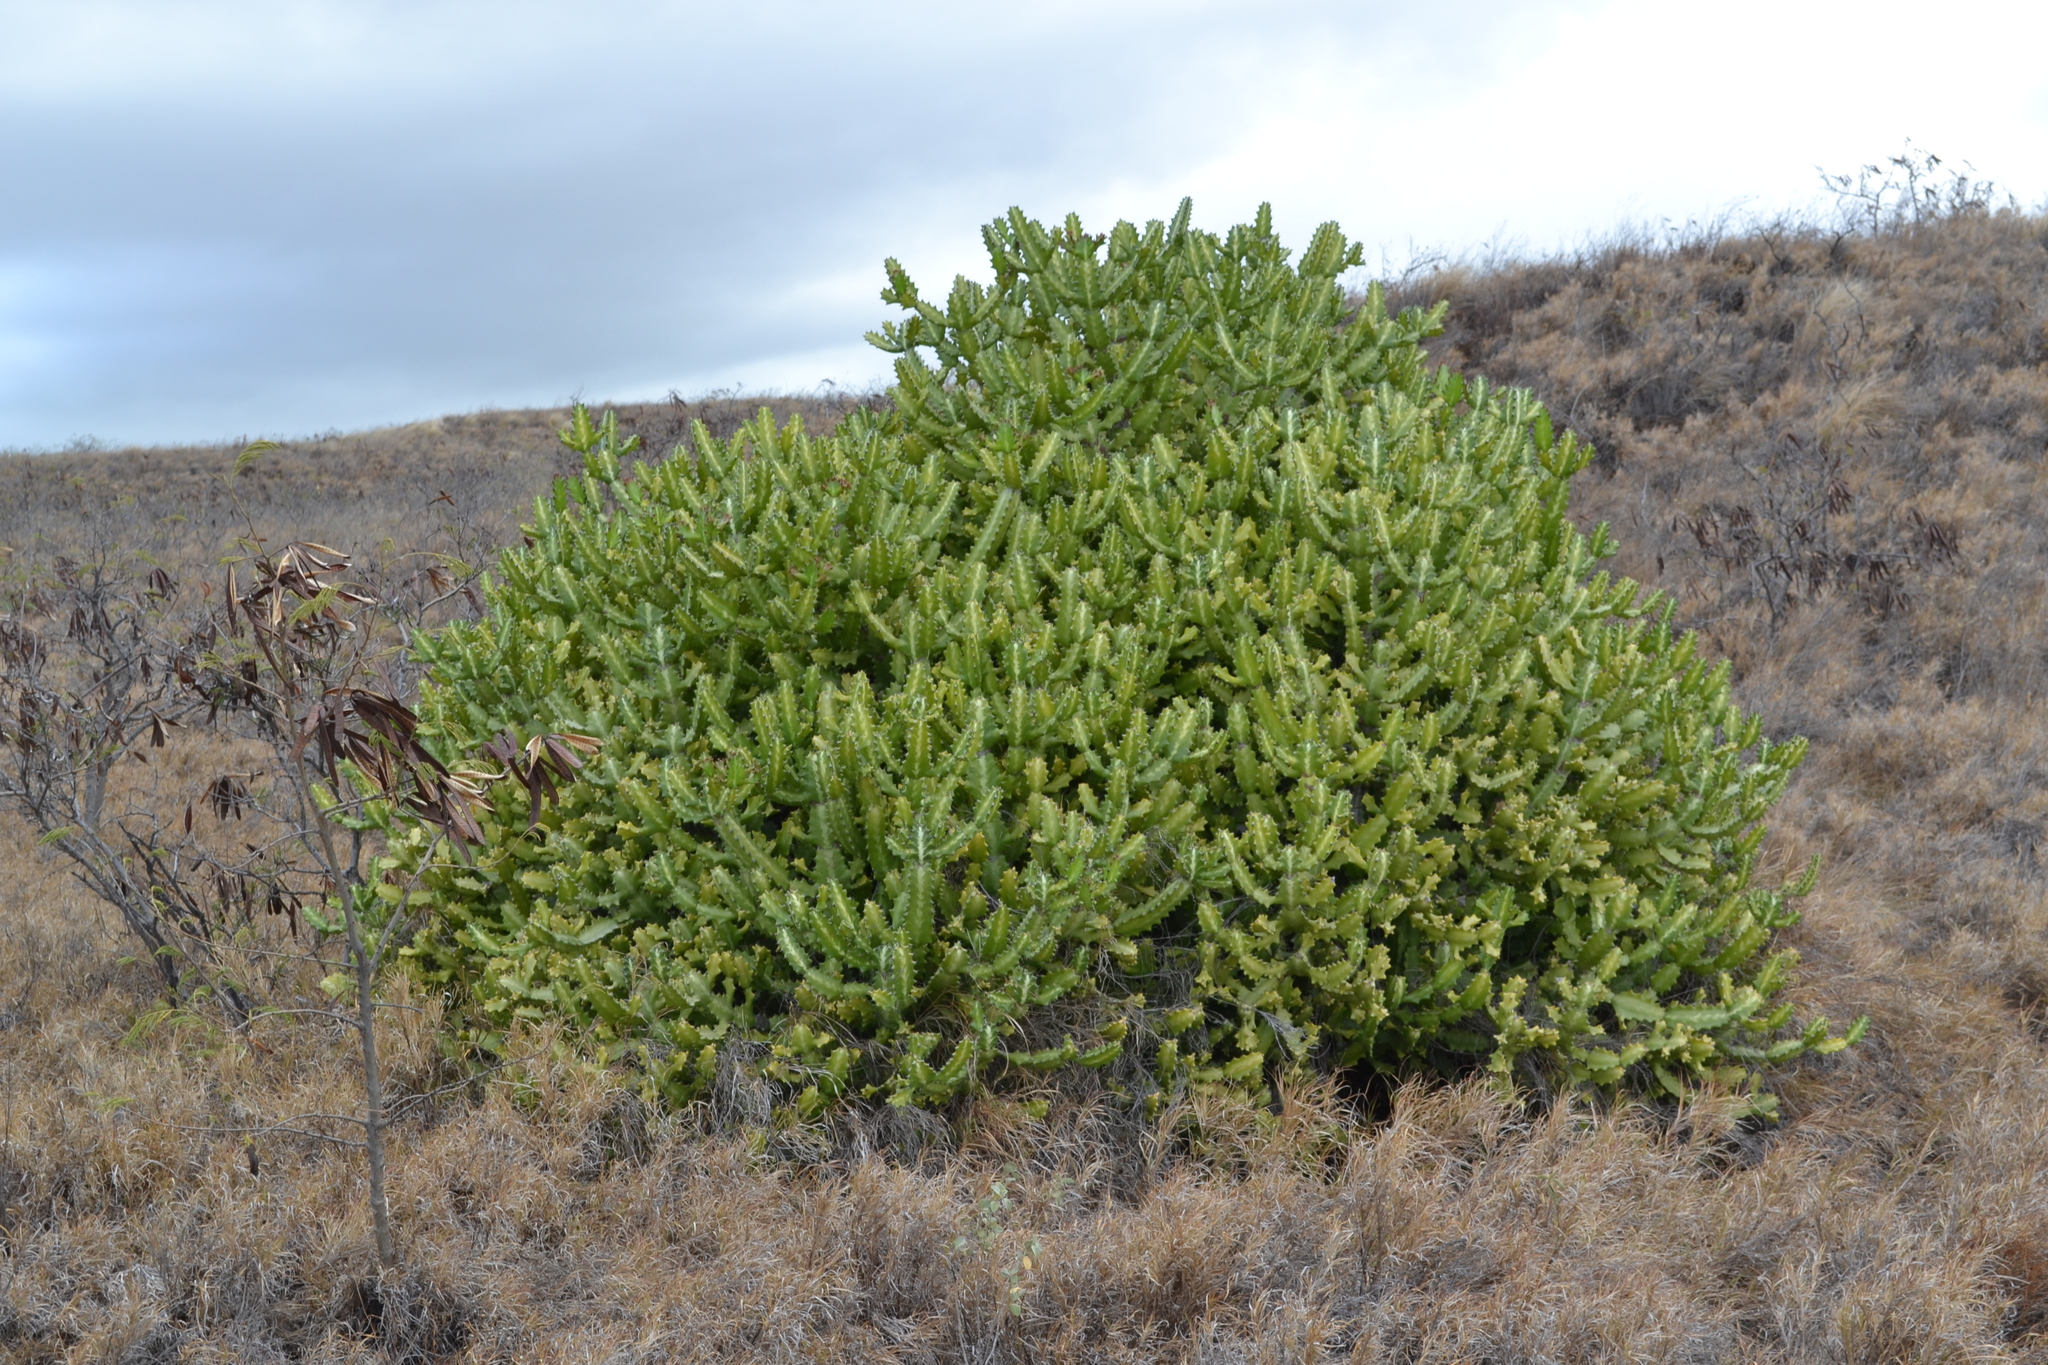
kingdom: Plantae
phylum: Tracheophyta
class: Magnoliopsida
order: Malpighiales
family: Euphorbiaceae
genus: Euphorbia
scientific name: Euphorbia lactea
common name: Mottled spurge
